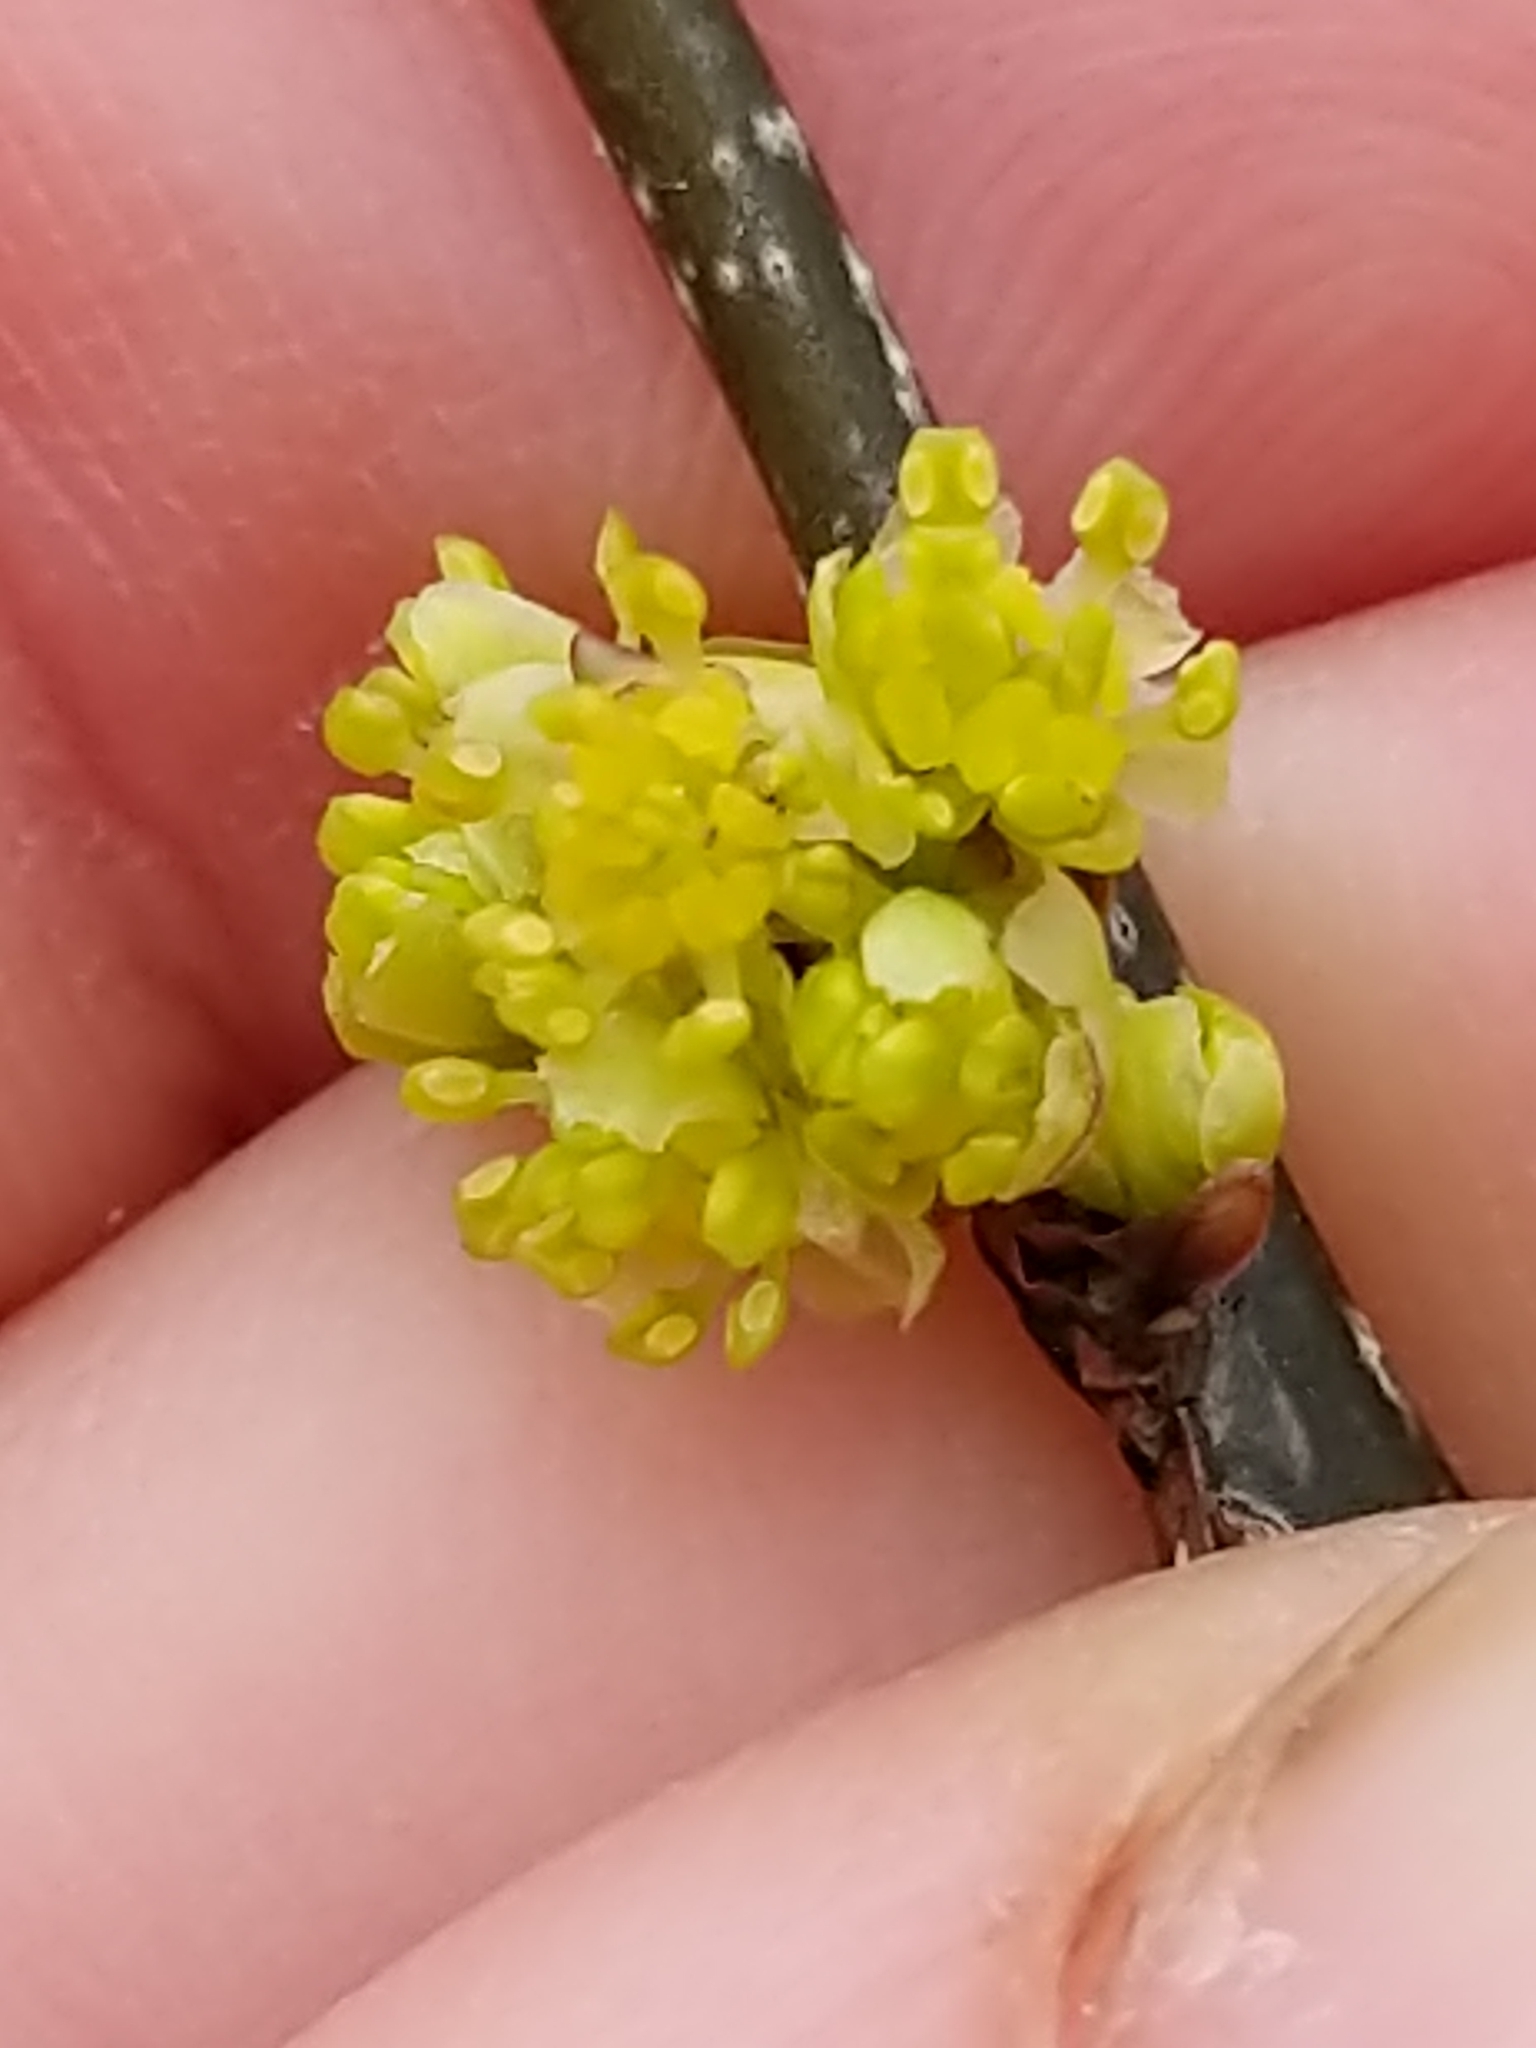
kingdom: Plantae
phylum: Tracheophyta
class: Magnoliopsida
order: Laurales
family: Lauraceae
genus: Lindera
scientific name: Lindera benzoin
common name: Spicebush
